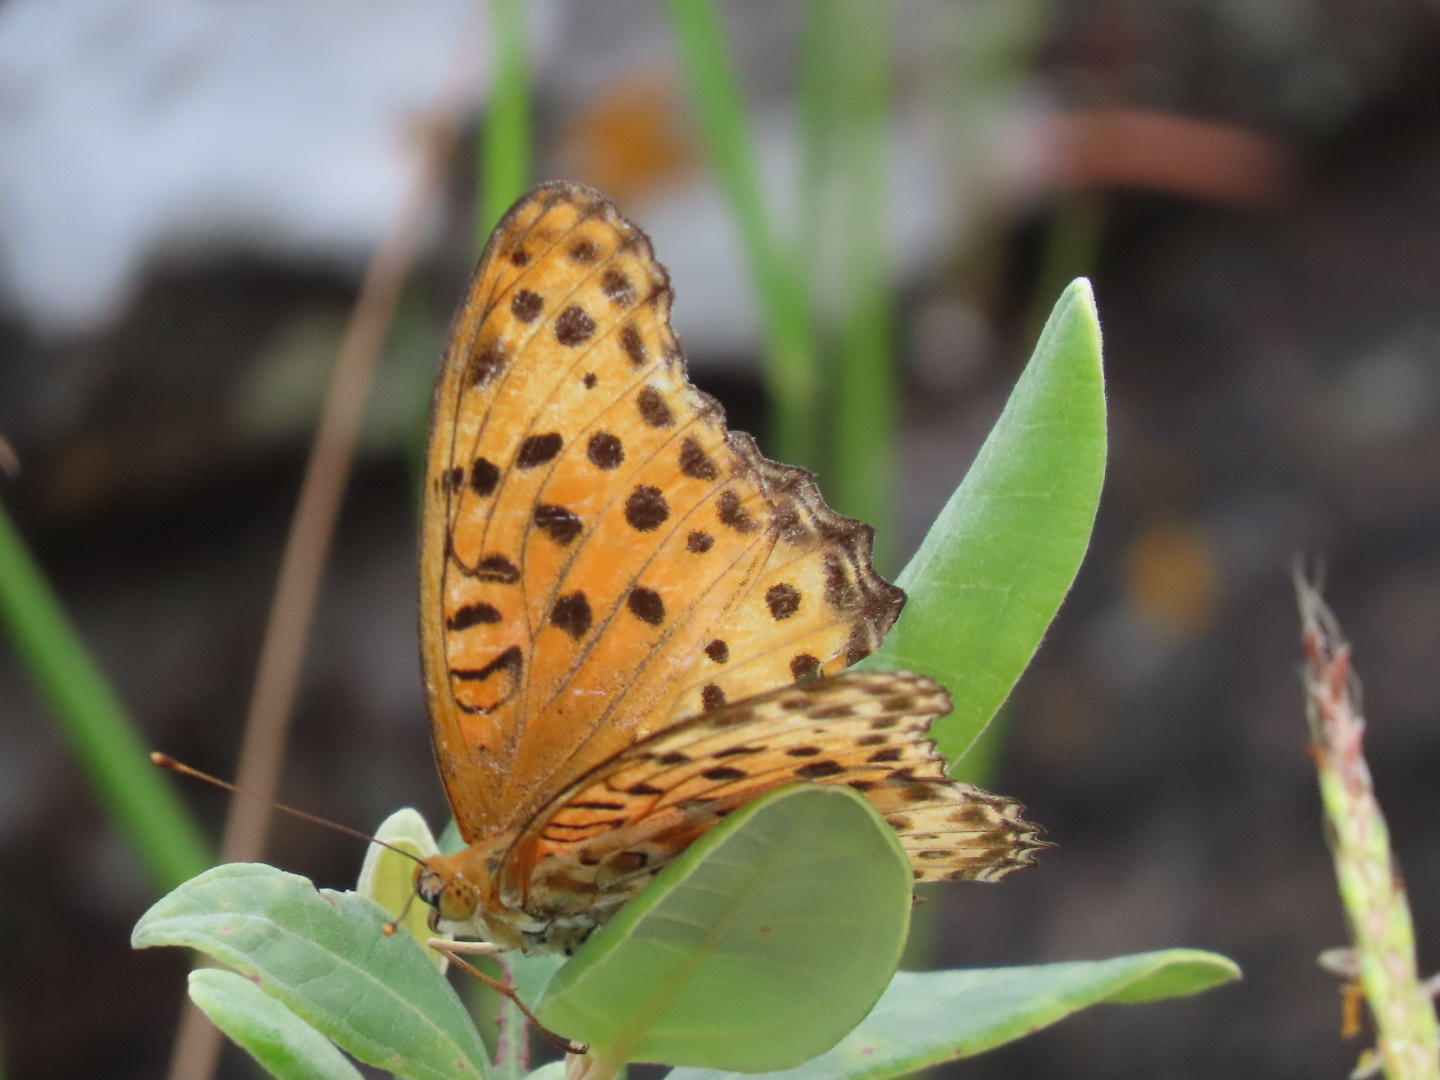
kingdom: Animalia
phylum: Arthropoda
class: Insecta
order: Lepidoptera
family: Nymphalidae
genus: Argynnis
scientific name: Argynnis hyperbius
